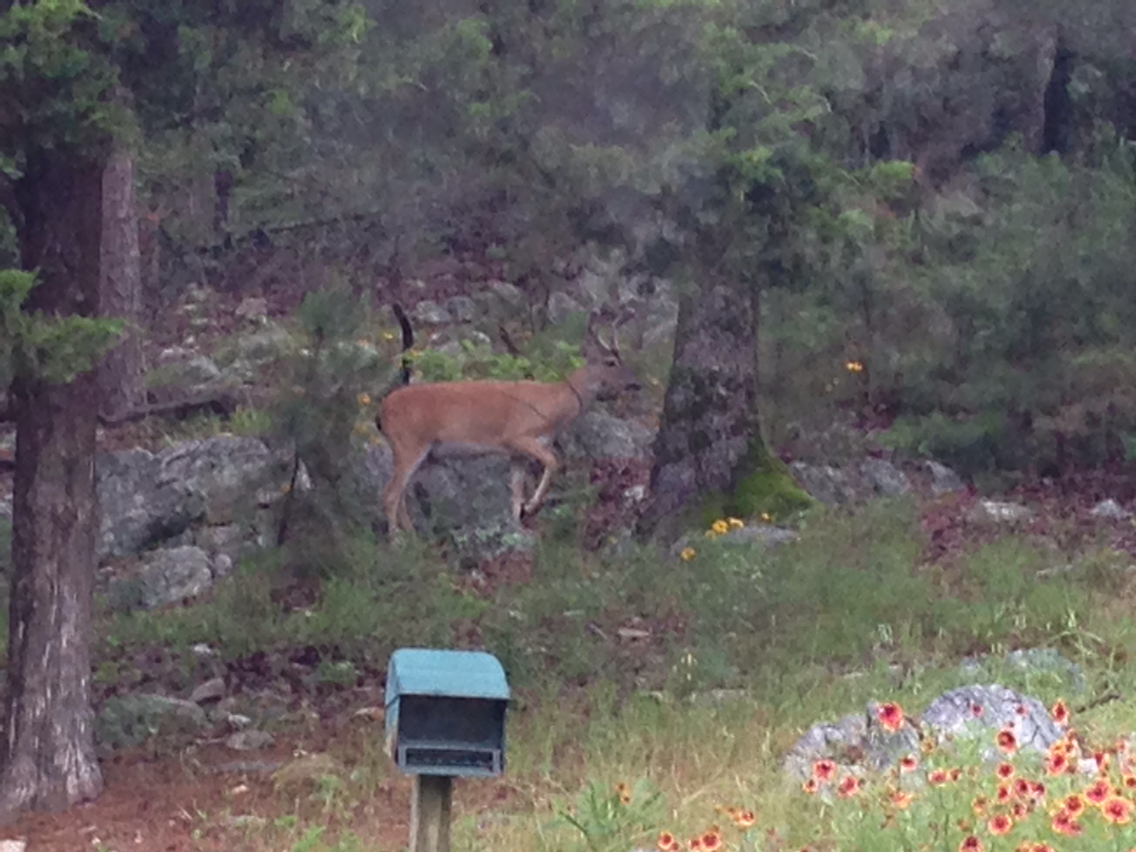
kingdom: Animalia
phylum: Chordata
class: Mammalia
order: Artiodactyla
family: Cervidae
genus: Odocoileus
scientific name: Odocoileus virginianus
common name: White-tailed deer
